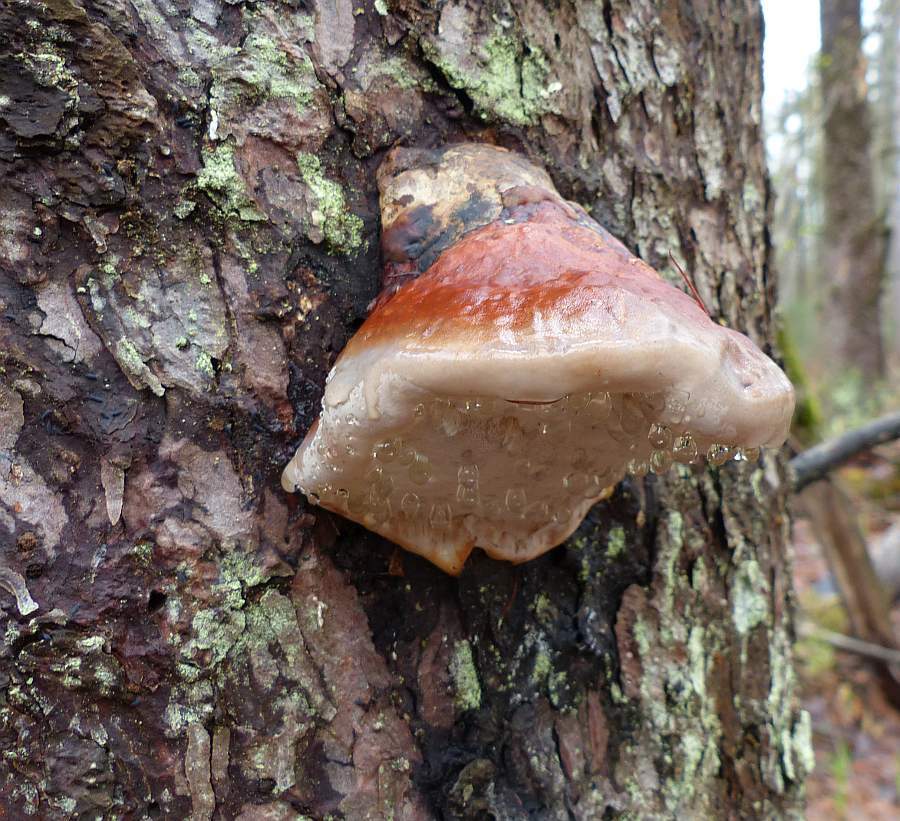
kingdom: Fungi
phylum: Basidiomycota
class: Agaricomycetes
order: Polyporales
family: Fomitopsidaceae
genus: Fomitopsis
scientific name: Fomitopsis mounceae
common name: Northern red belt
